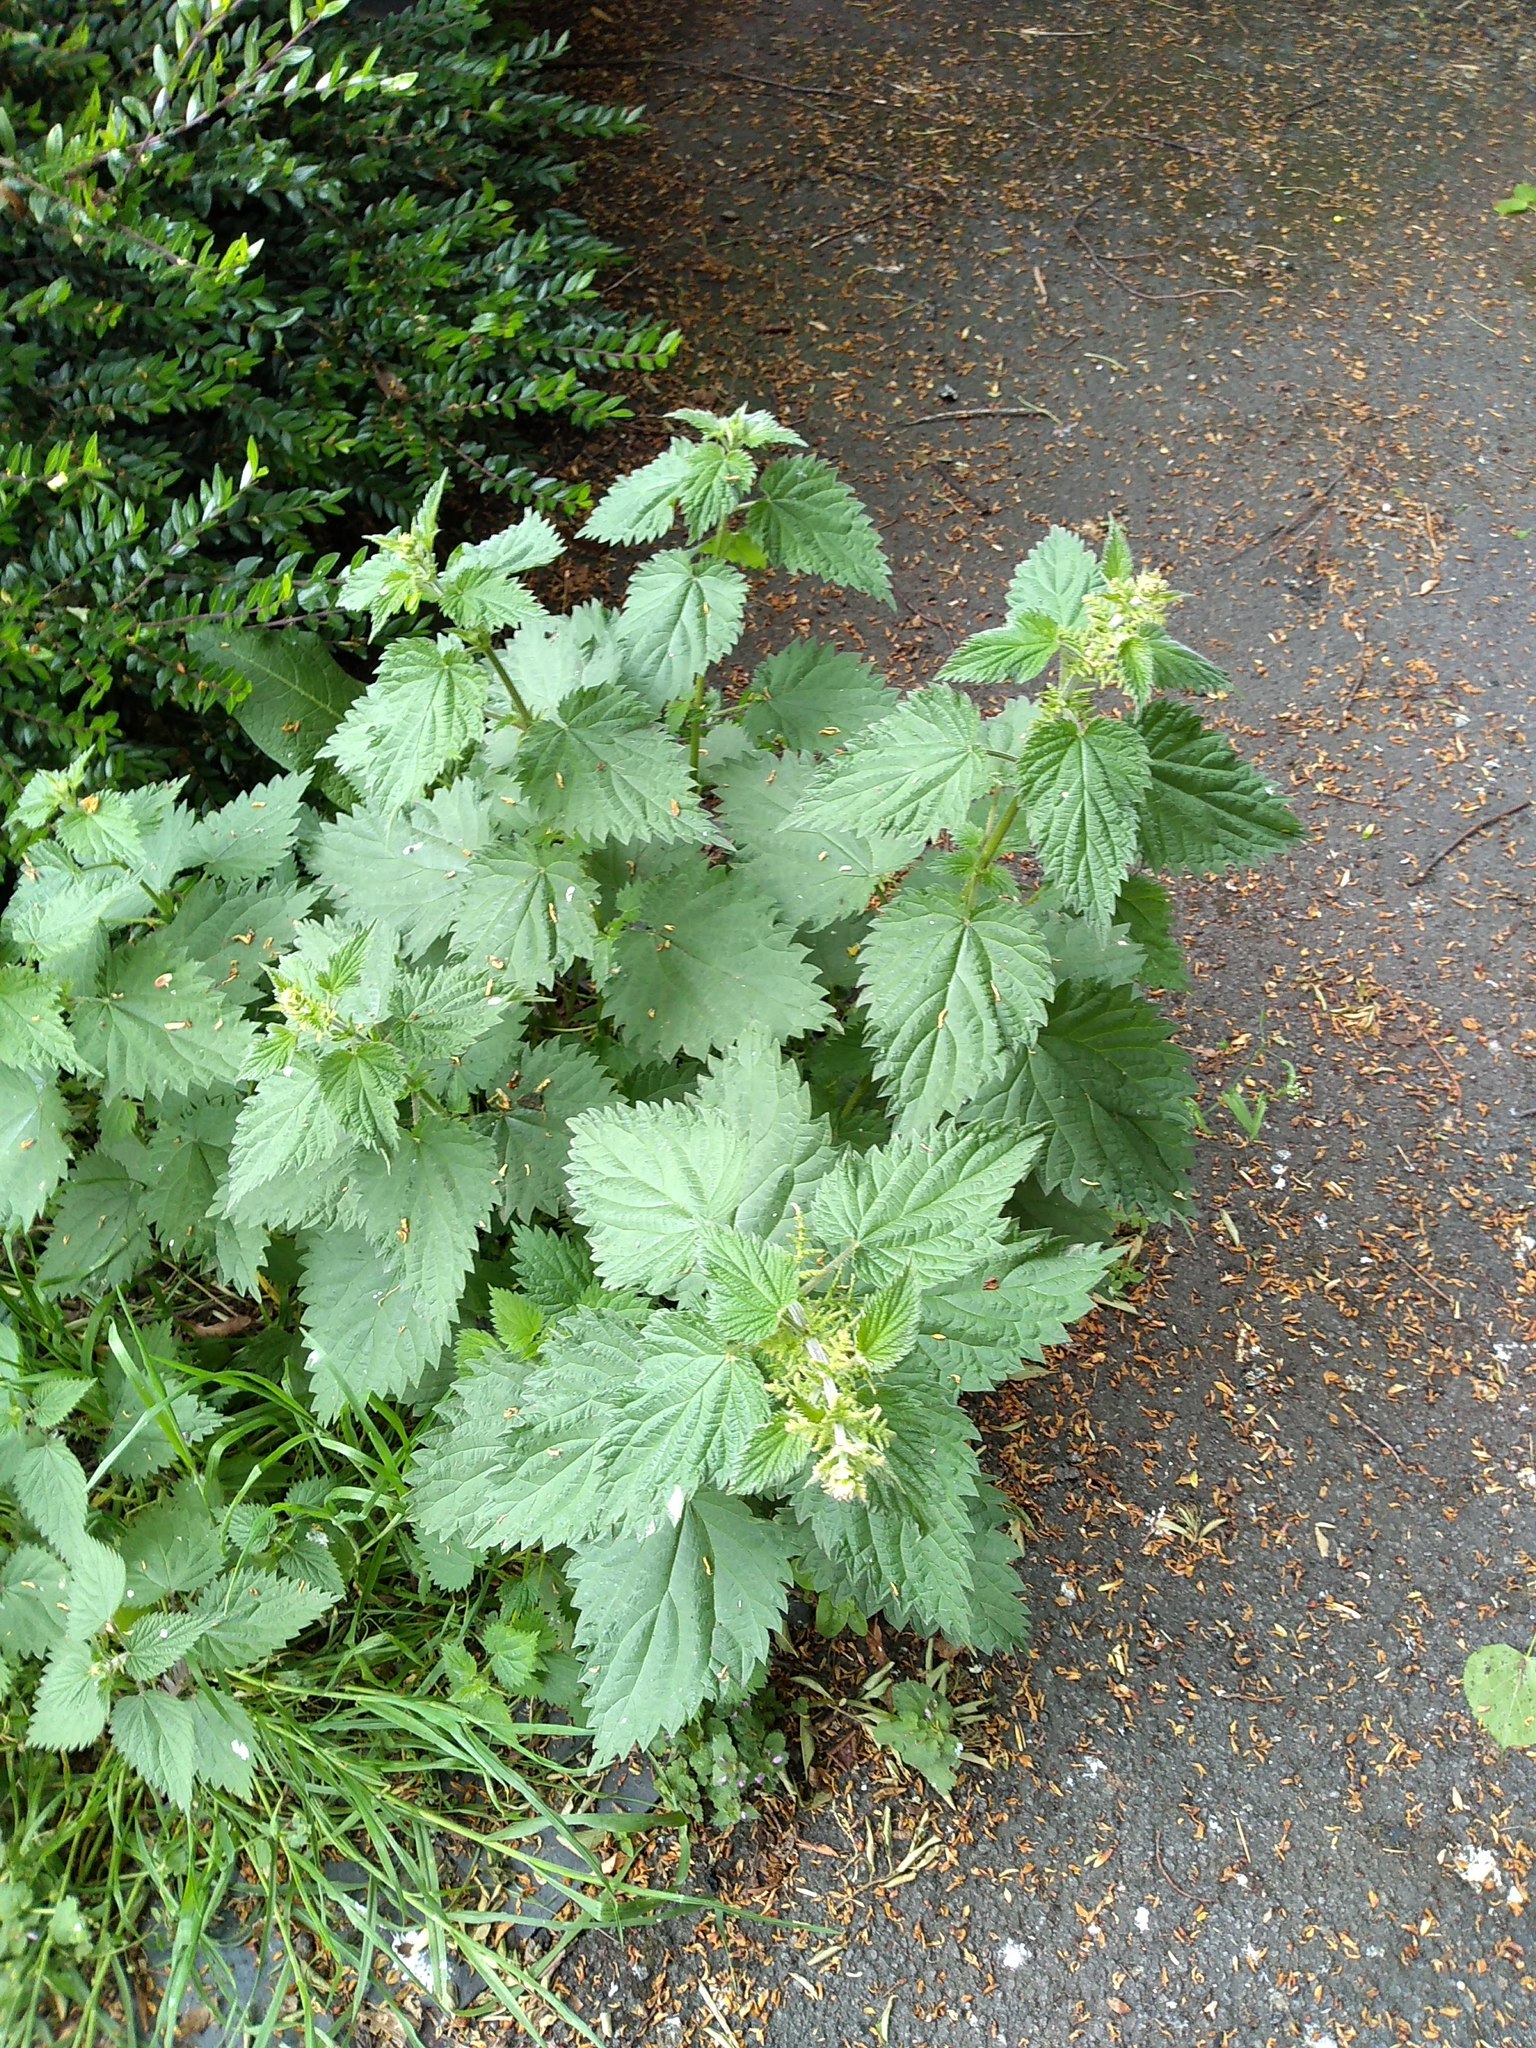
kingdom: Plantae
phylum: Tracheophyta
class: Magnoliopsida
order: Rosales
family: Urticaceae
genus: Urtica
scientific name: Urtica dioica
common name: Common nettle
